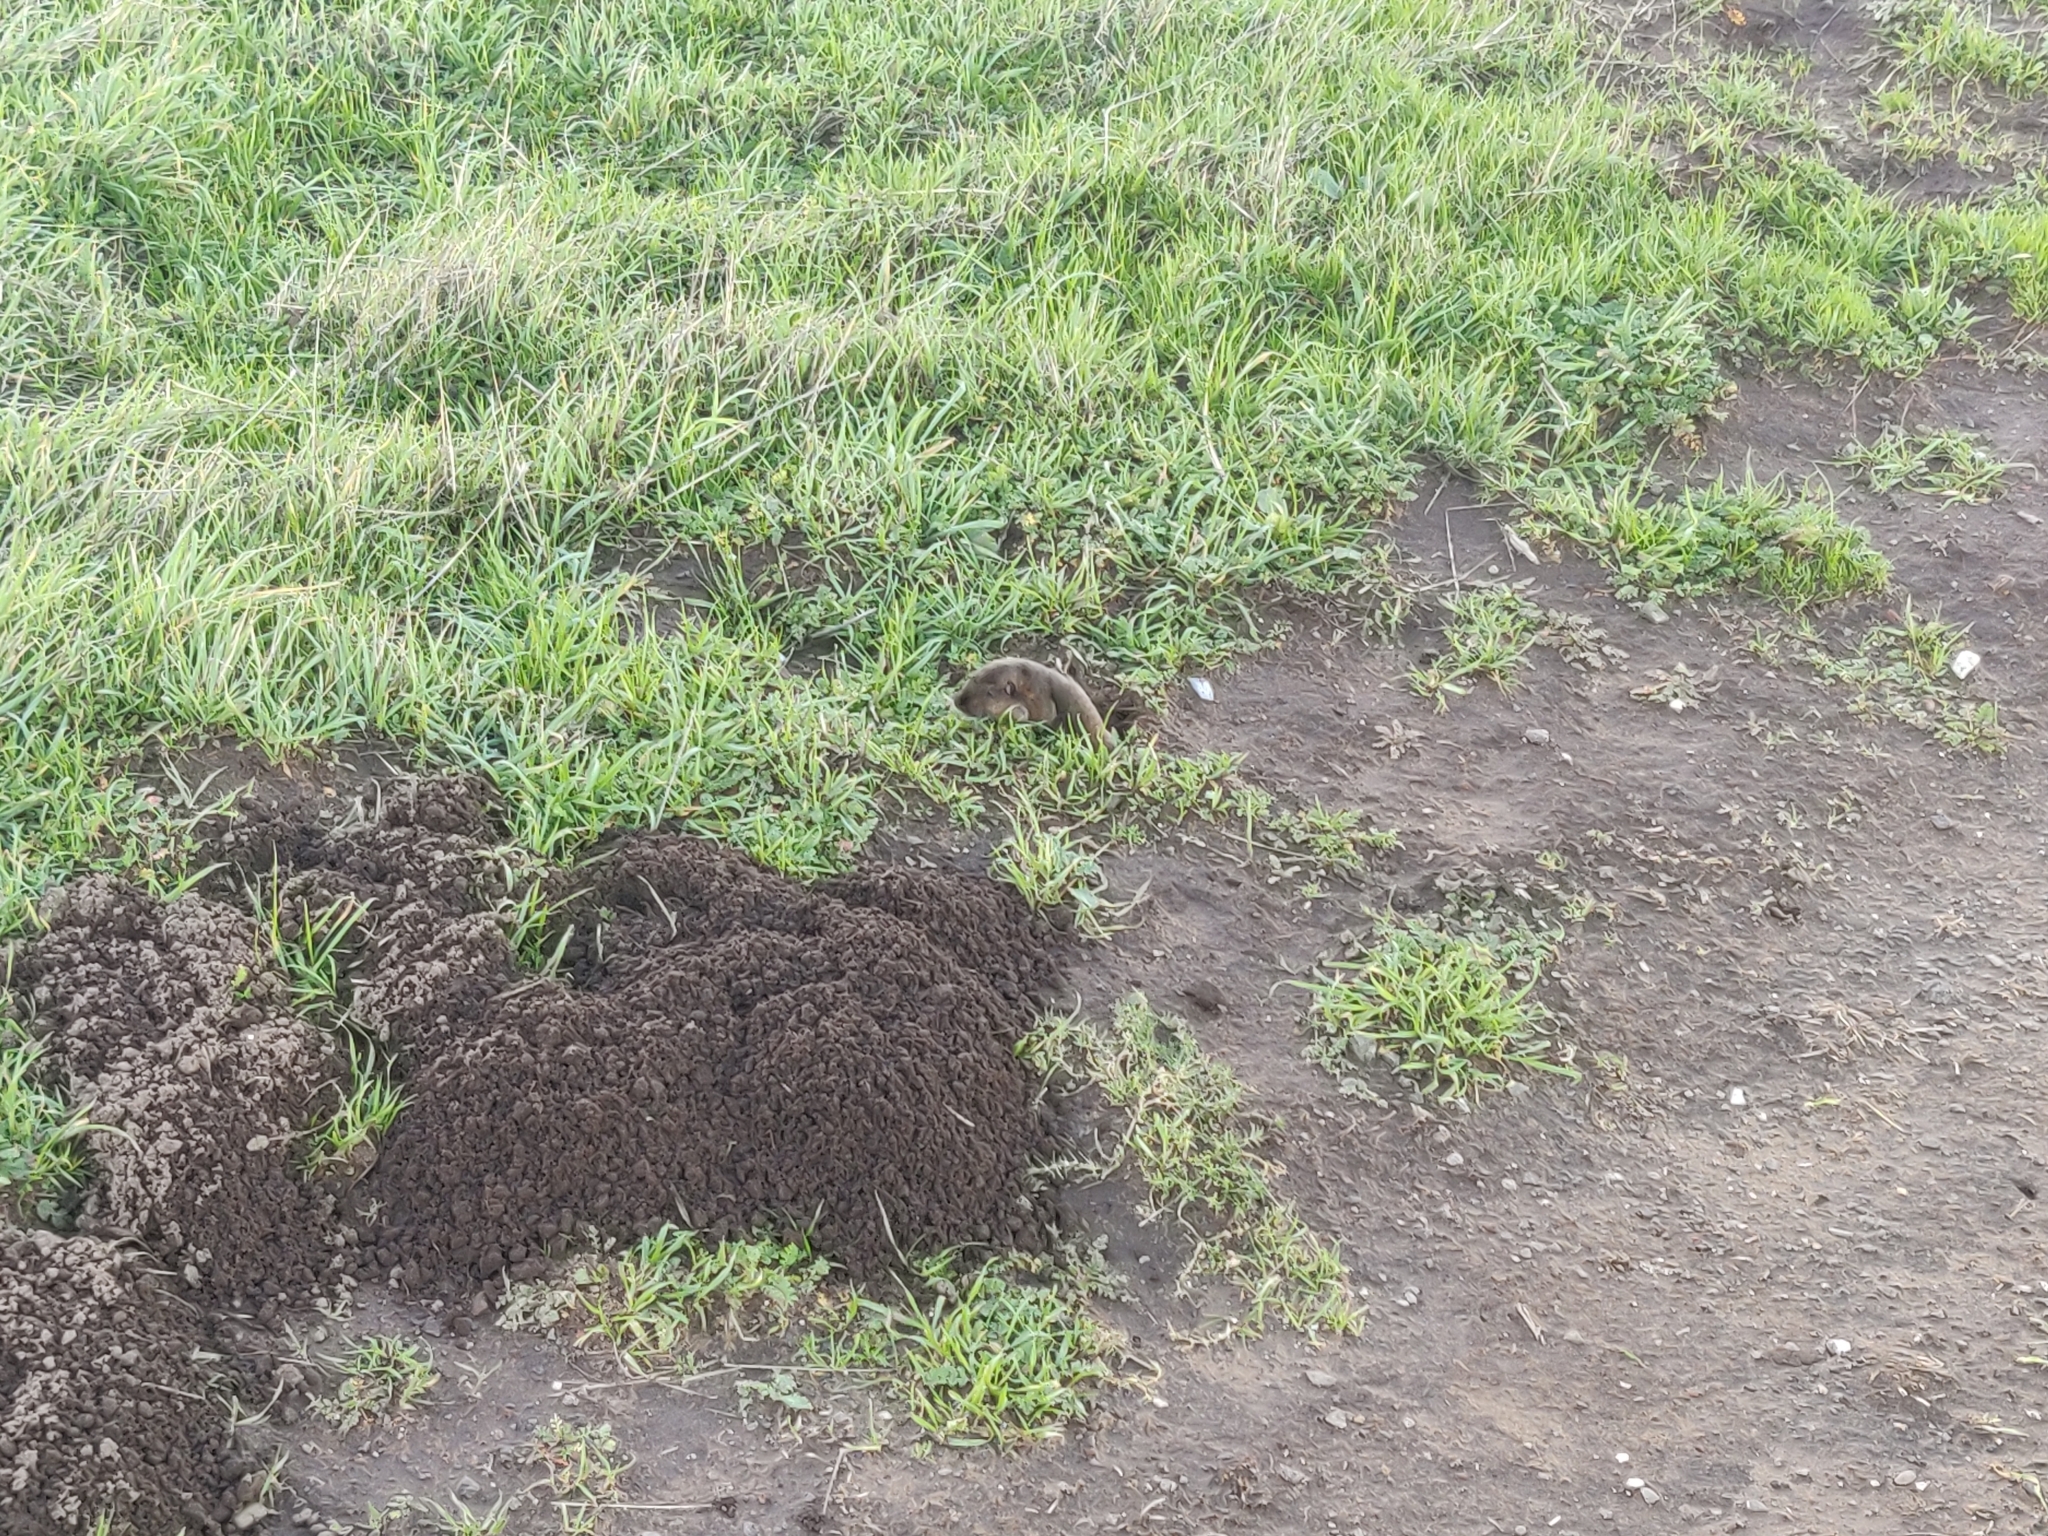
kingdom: Animalia
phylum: Chordata
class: Mammalia
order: Rodentia
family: Geomyidae
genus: Thomomys
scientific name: Thomomys bottae
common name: Botta's pocket gopher
